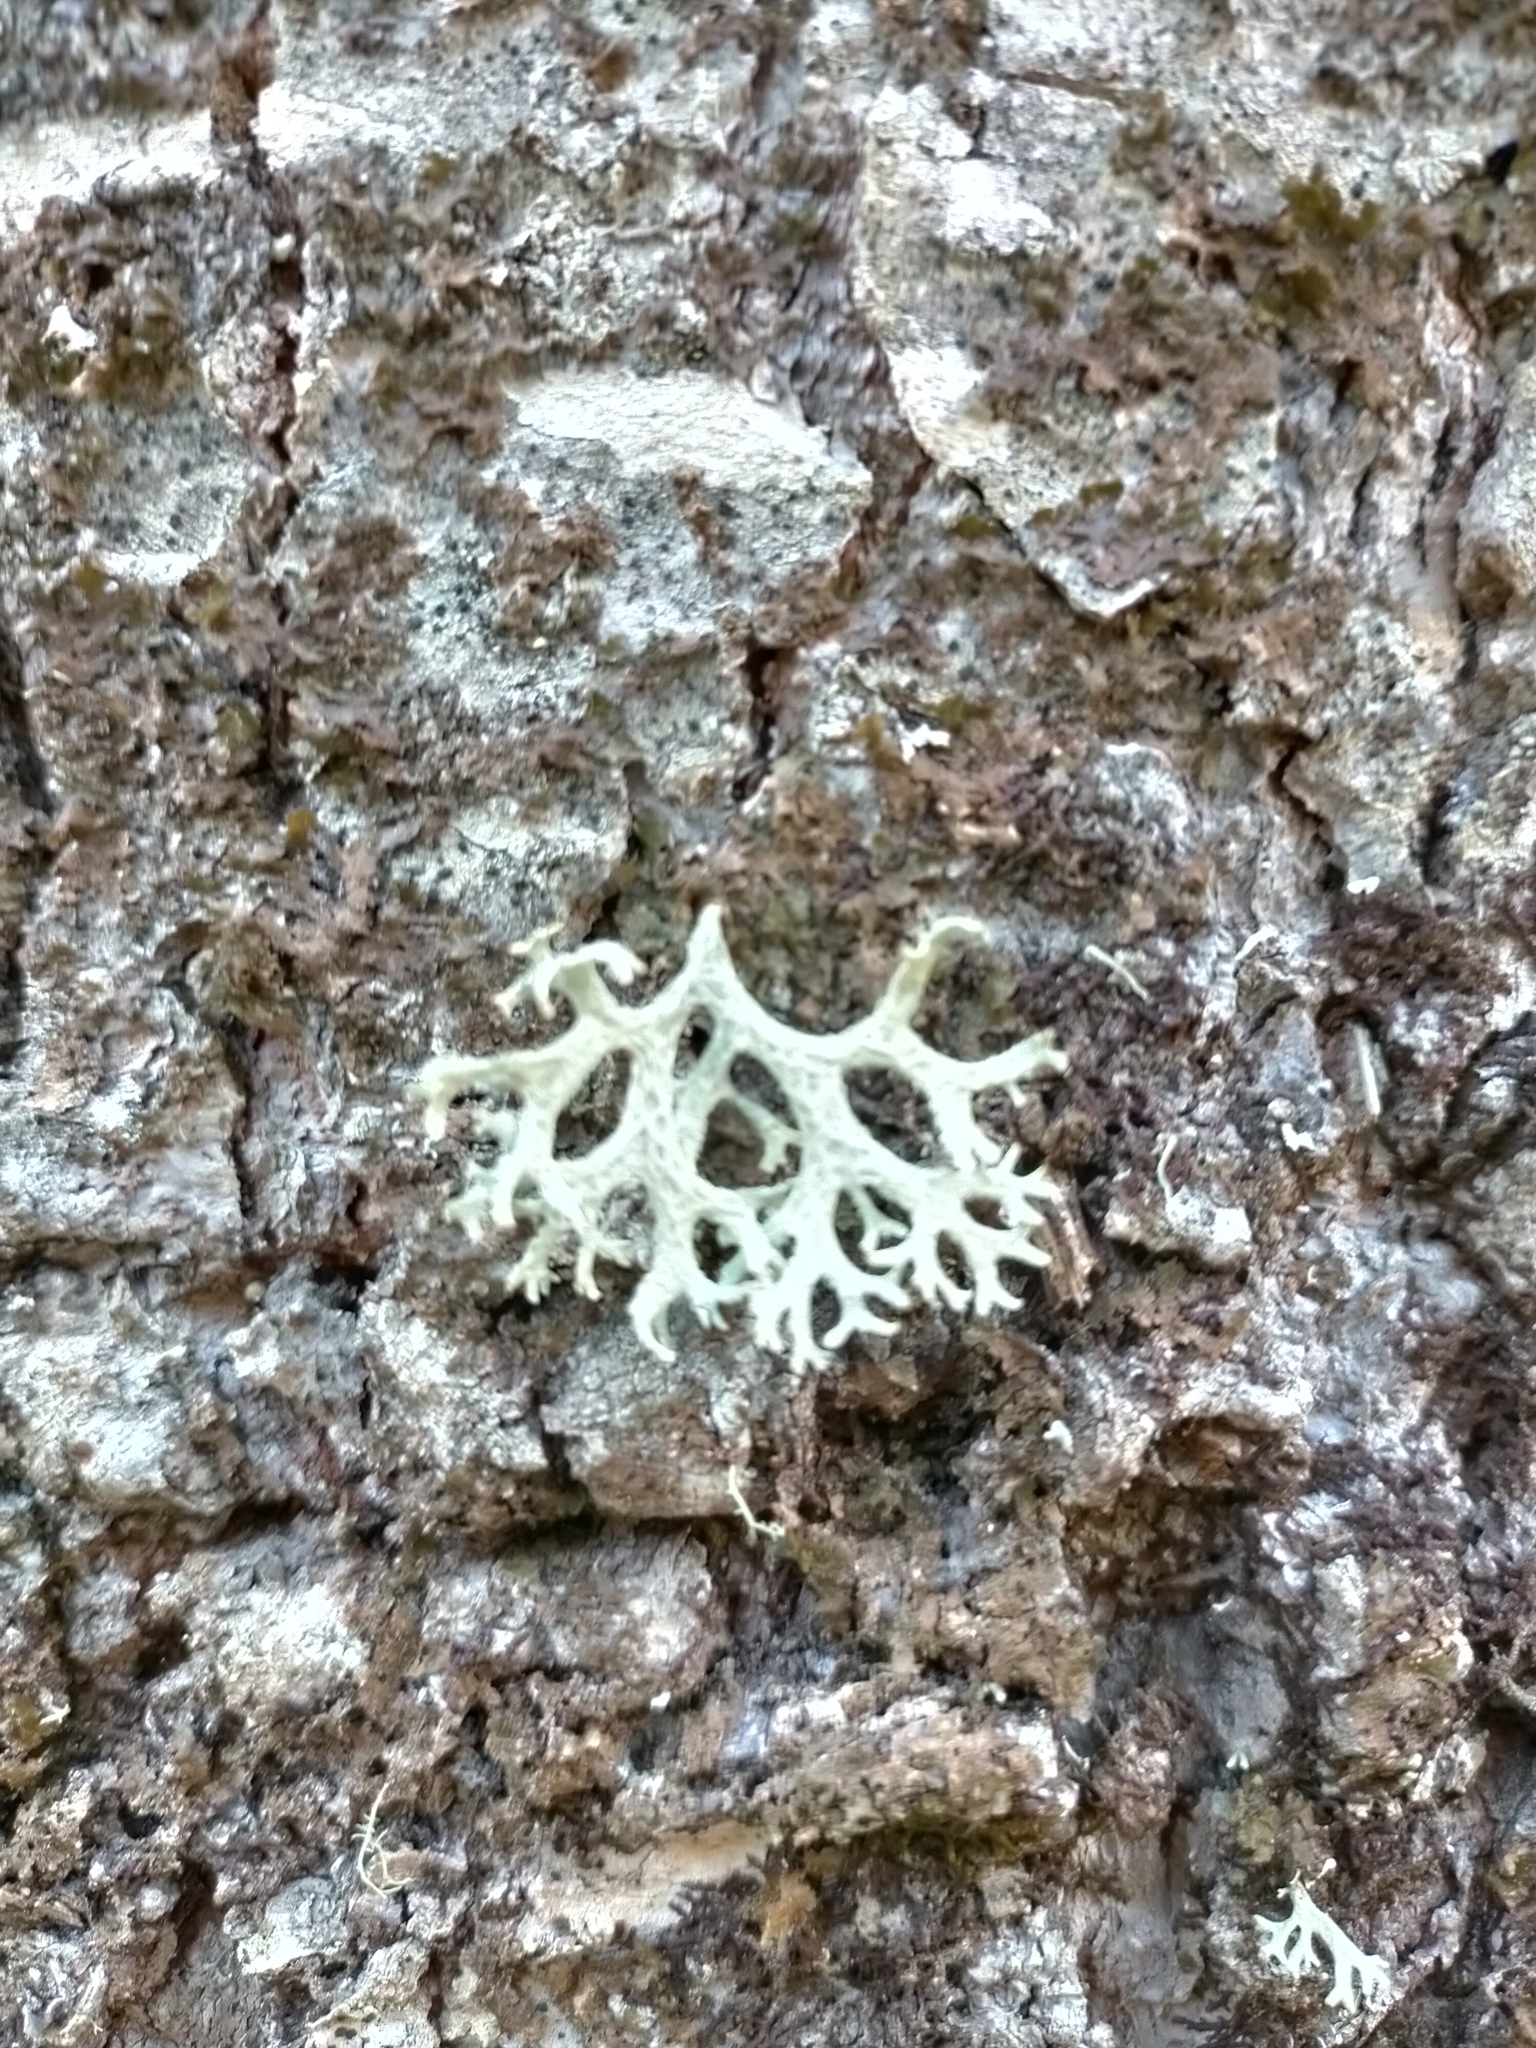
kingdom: Fungi
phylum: Ascomycota
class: Lecanoromycetes
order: Lecanorales
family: Parmeliaceae
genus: Evernia
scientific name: Evernia prunastri
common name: Oak moss
